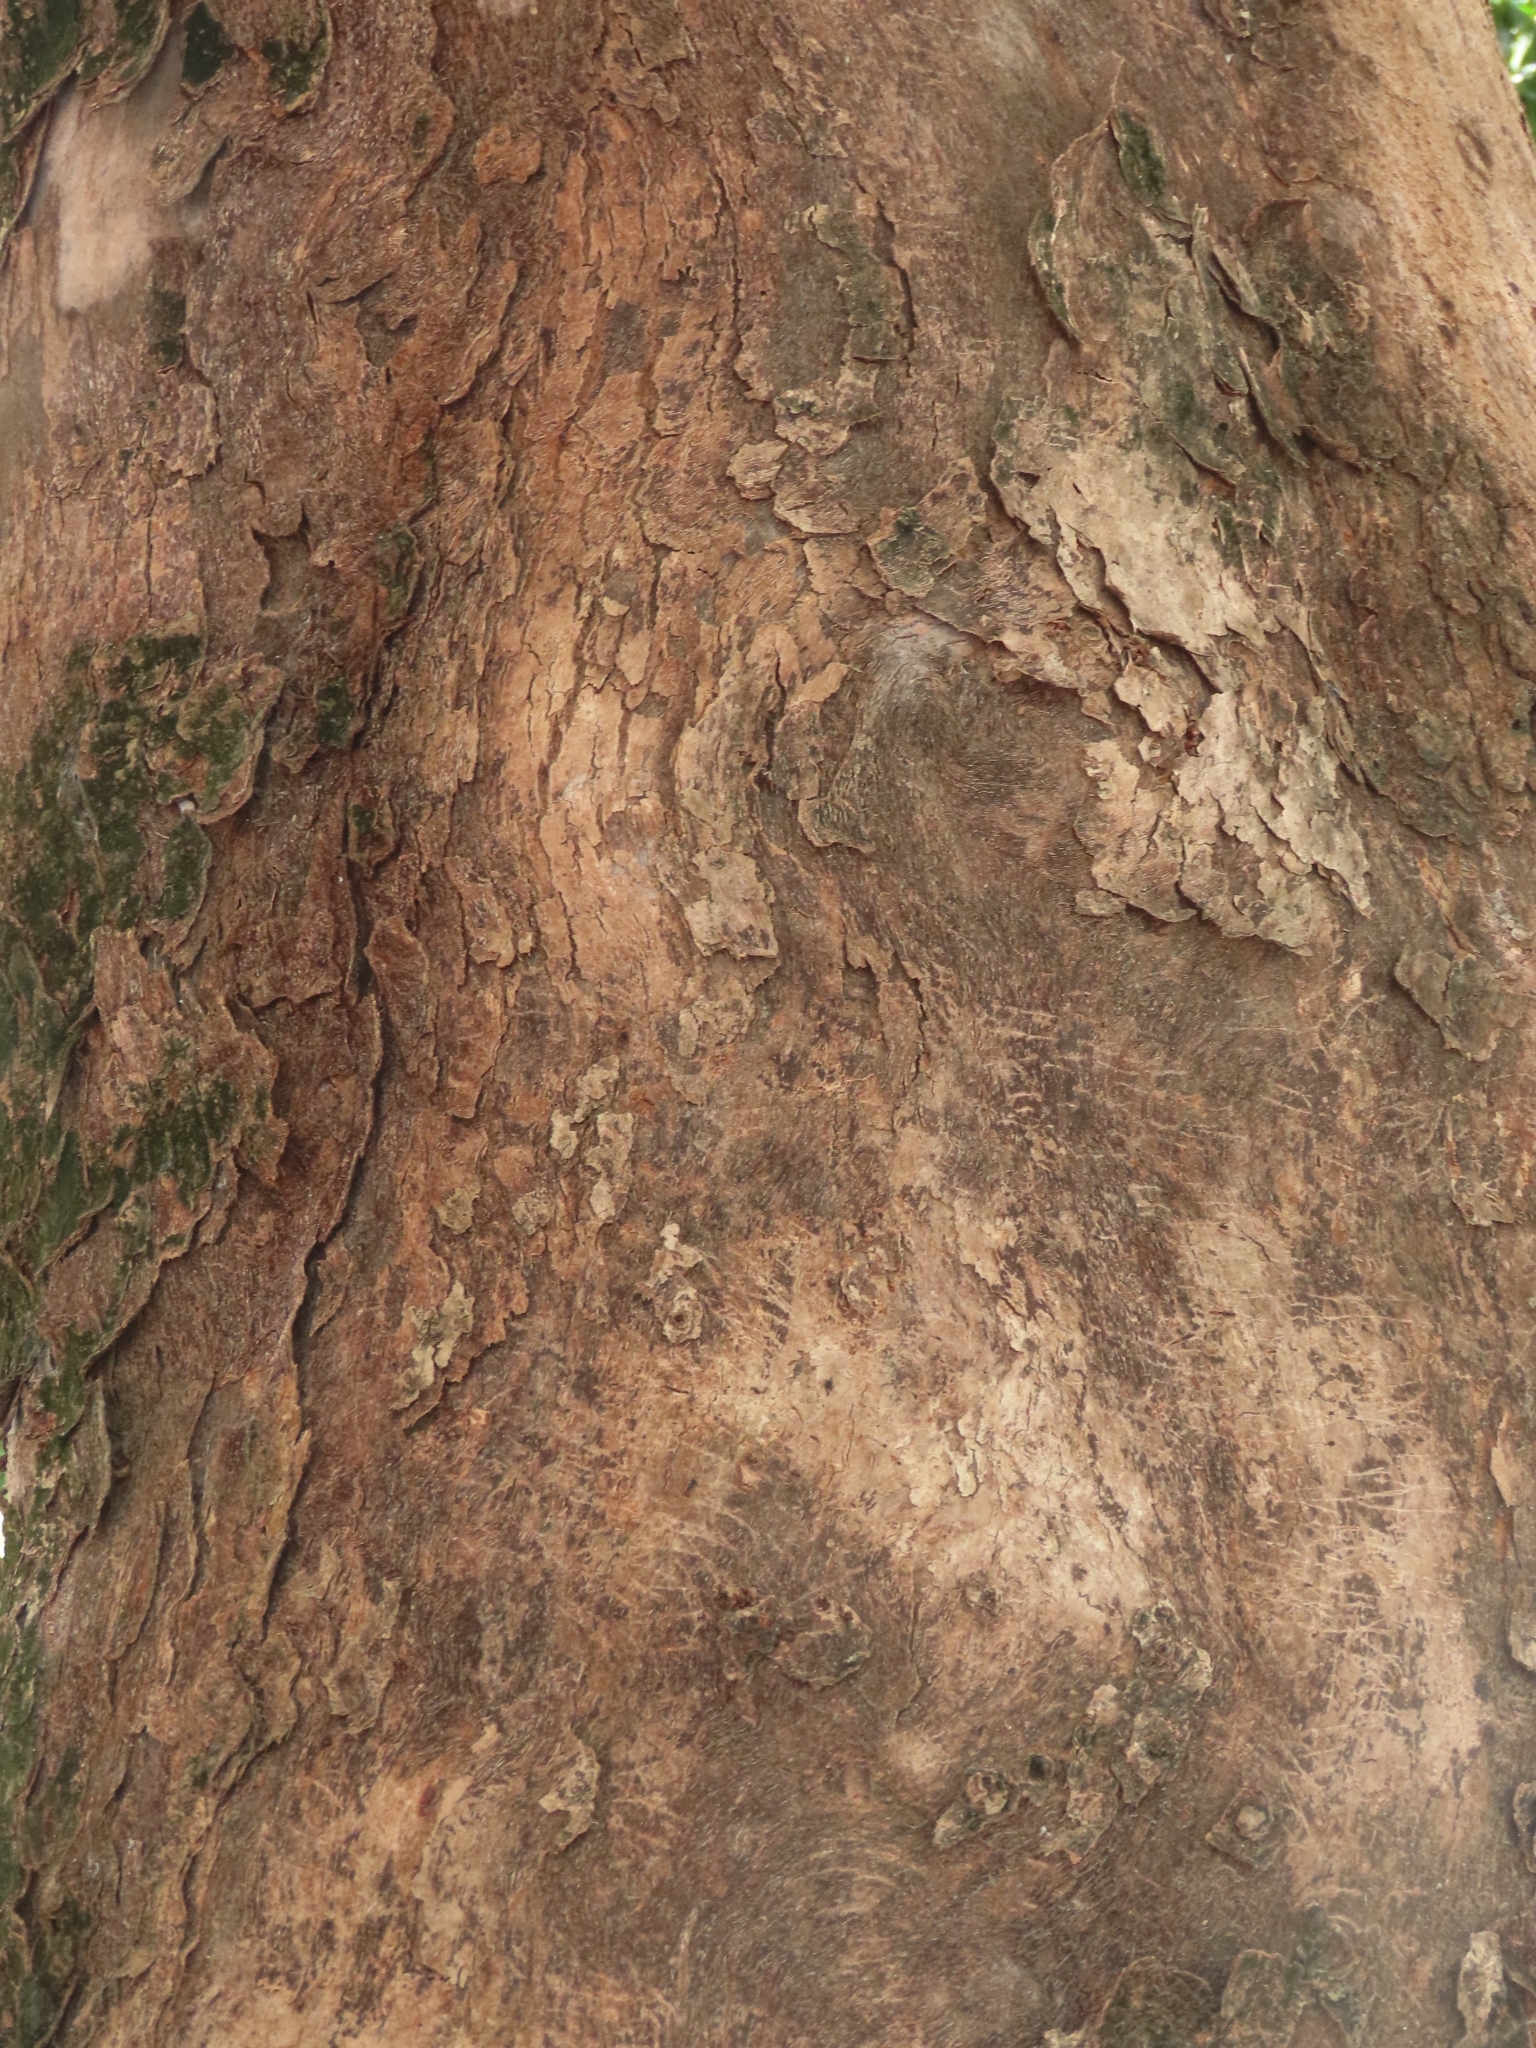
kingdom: Plantae
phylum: Tracheophyta
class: Magnoliopsida
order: Malpighiales
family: Phyllanthaceae
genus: Bischofia
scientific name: Bischofia javanica
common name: Javanese bishopwood
